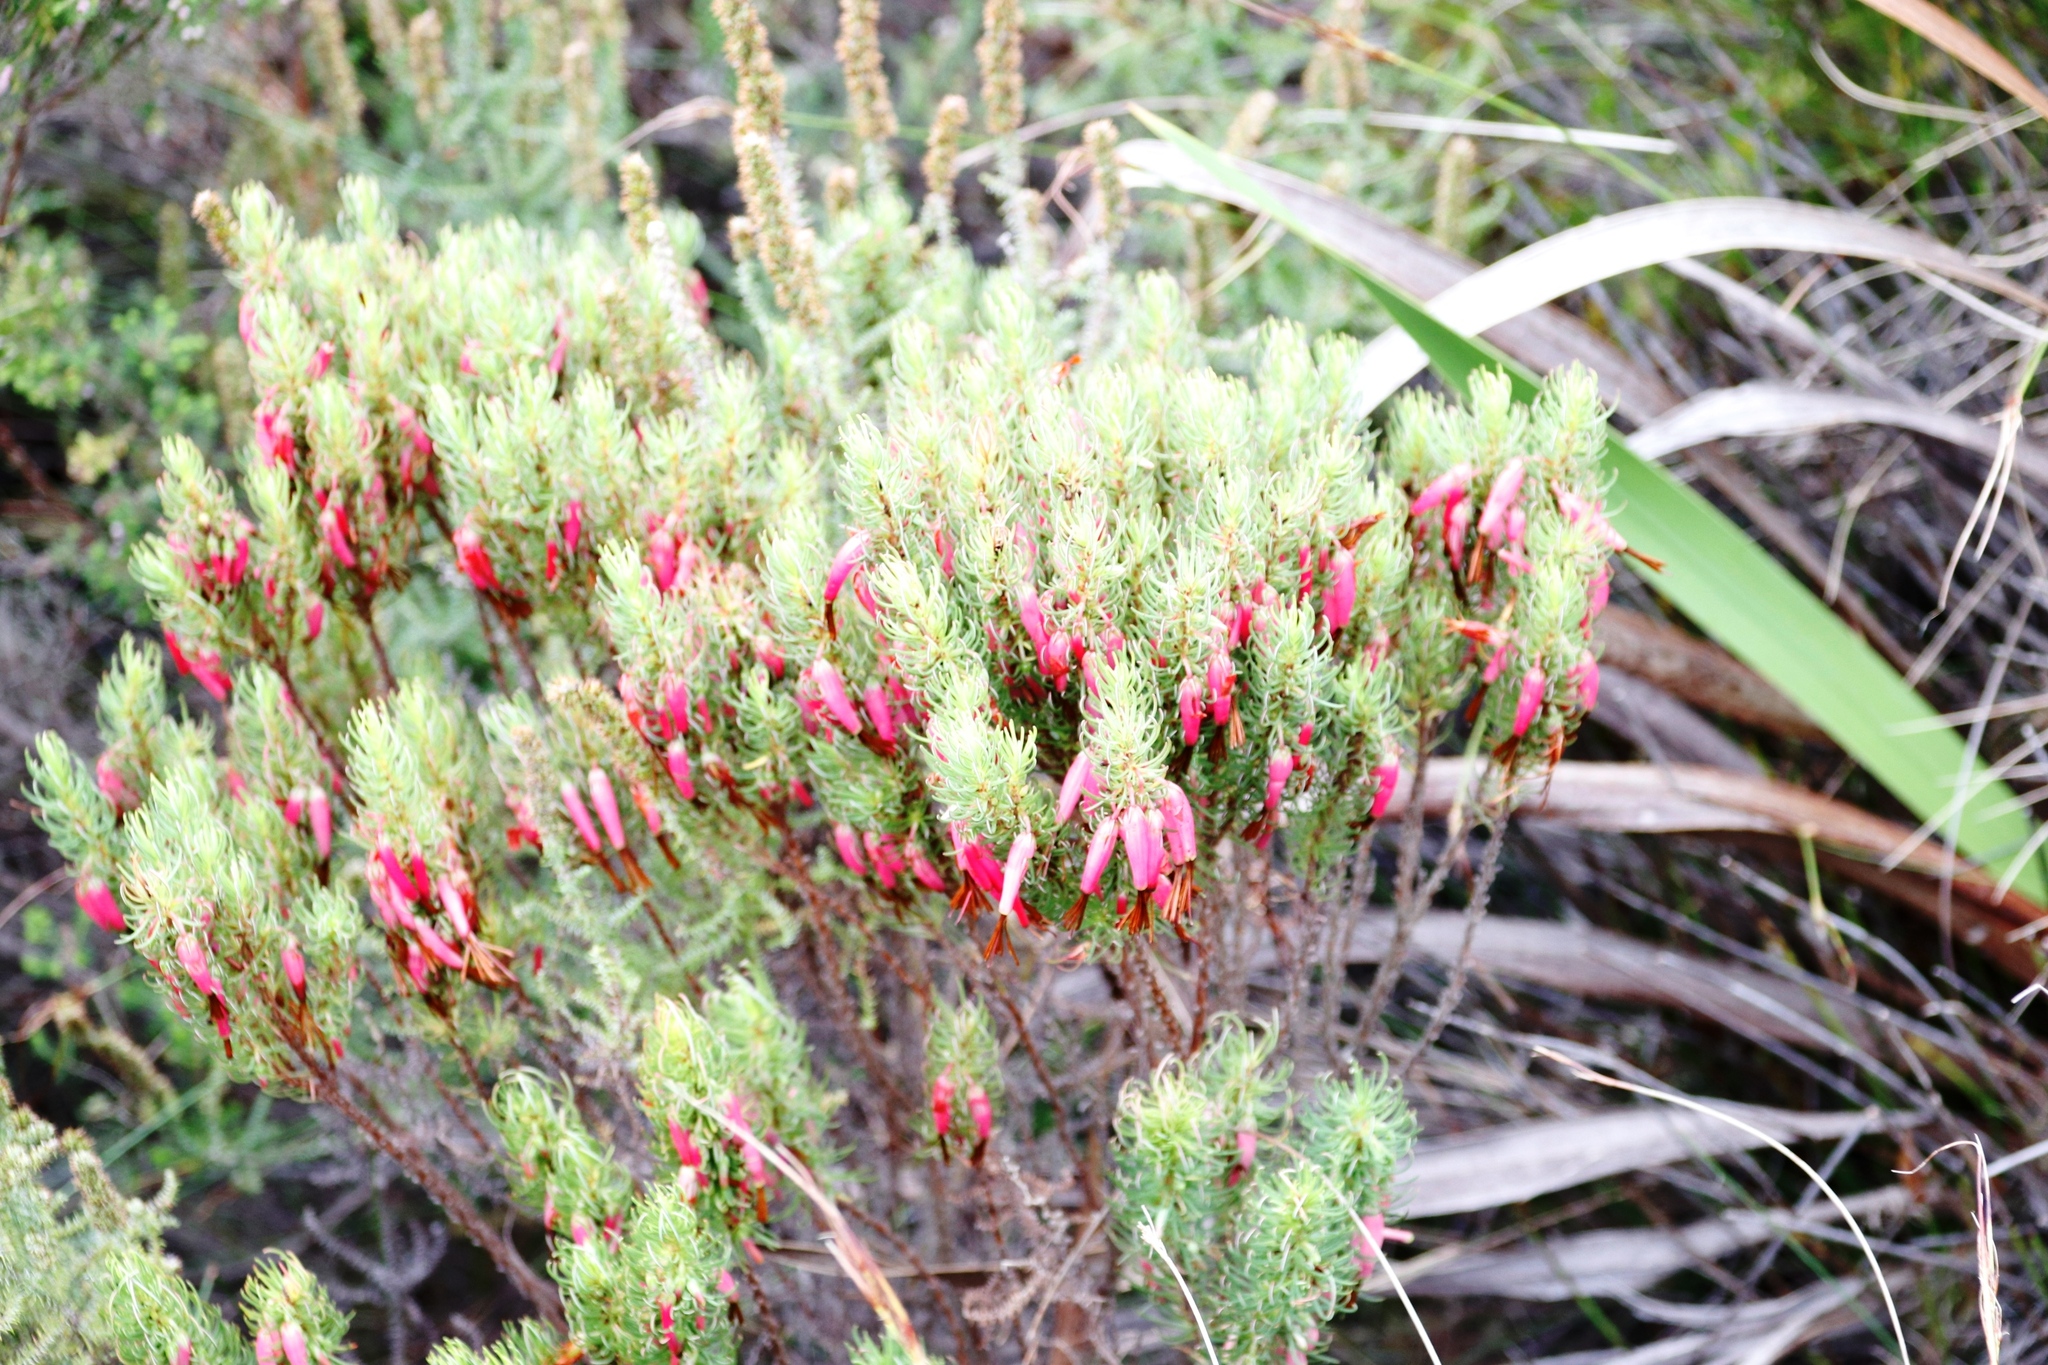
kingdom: Plantae
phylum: Tracheophyta
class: Magnoliopsida
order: Ericales
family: Ericaceae
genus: Erica
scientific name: Erica plukenetii
